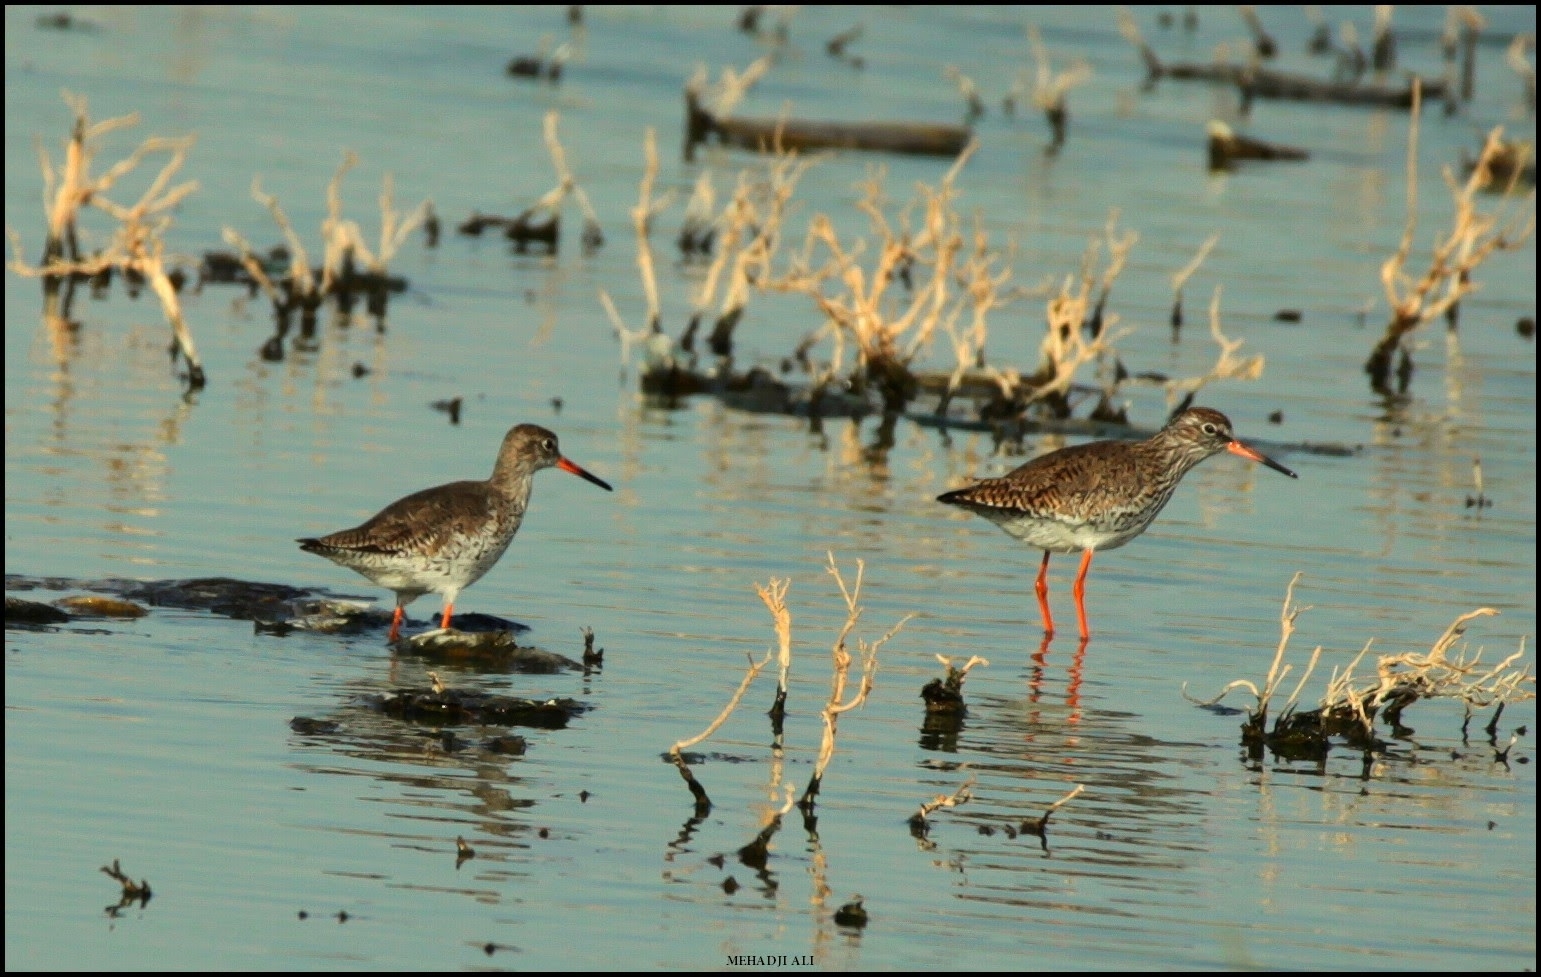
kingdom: Animalia
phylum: Chordata
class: Aves
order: Charadriiformes
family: Scolopacidae
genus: Tringa
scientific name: Tringa totanus
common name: Common redshank
